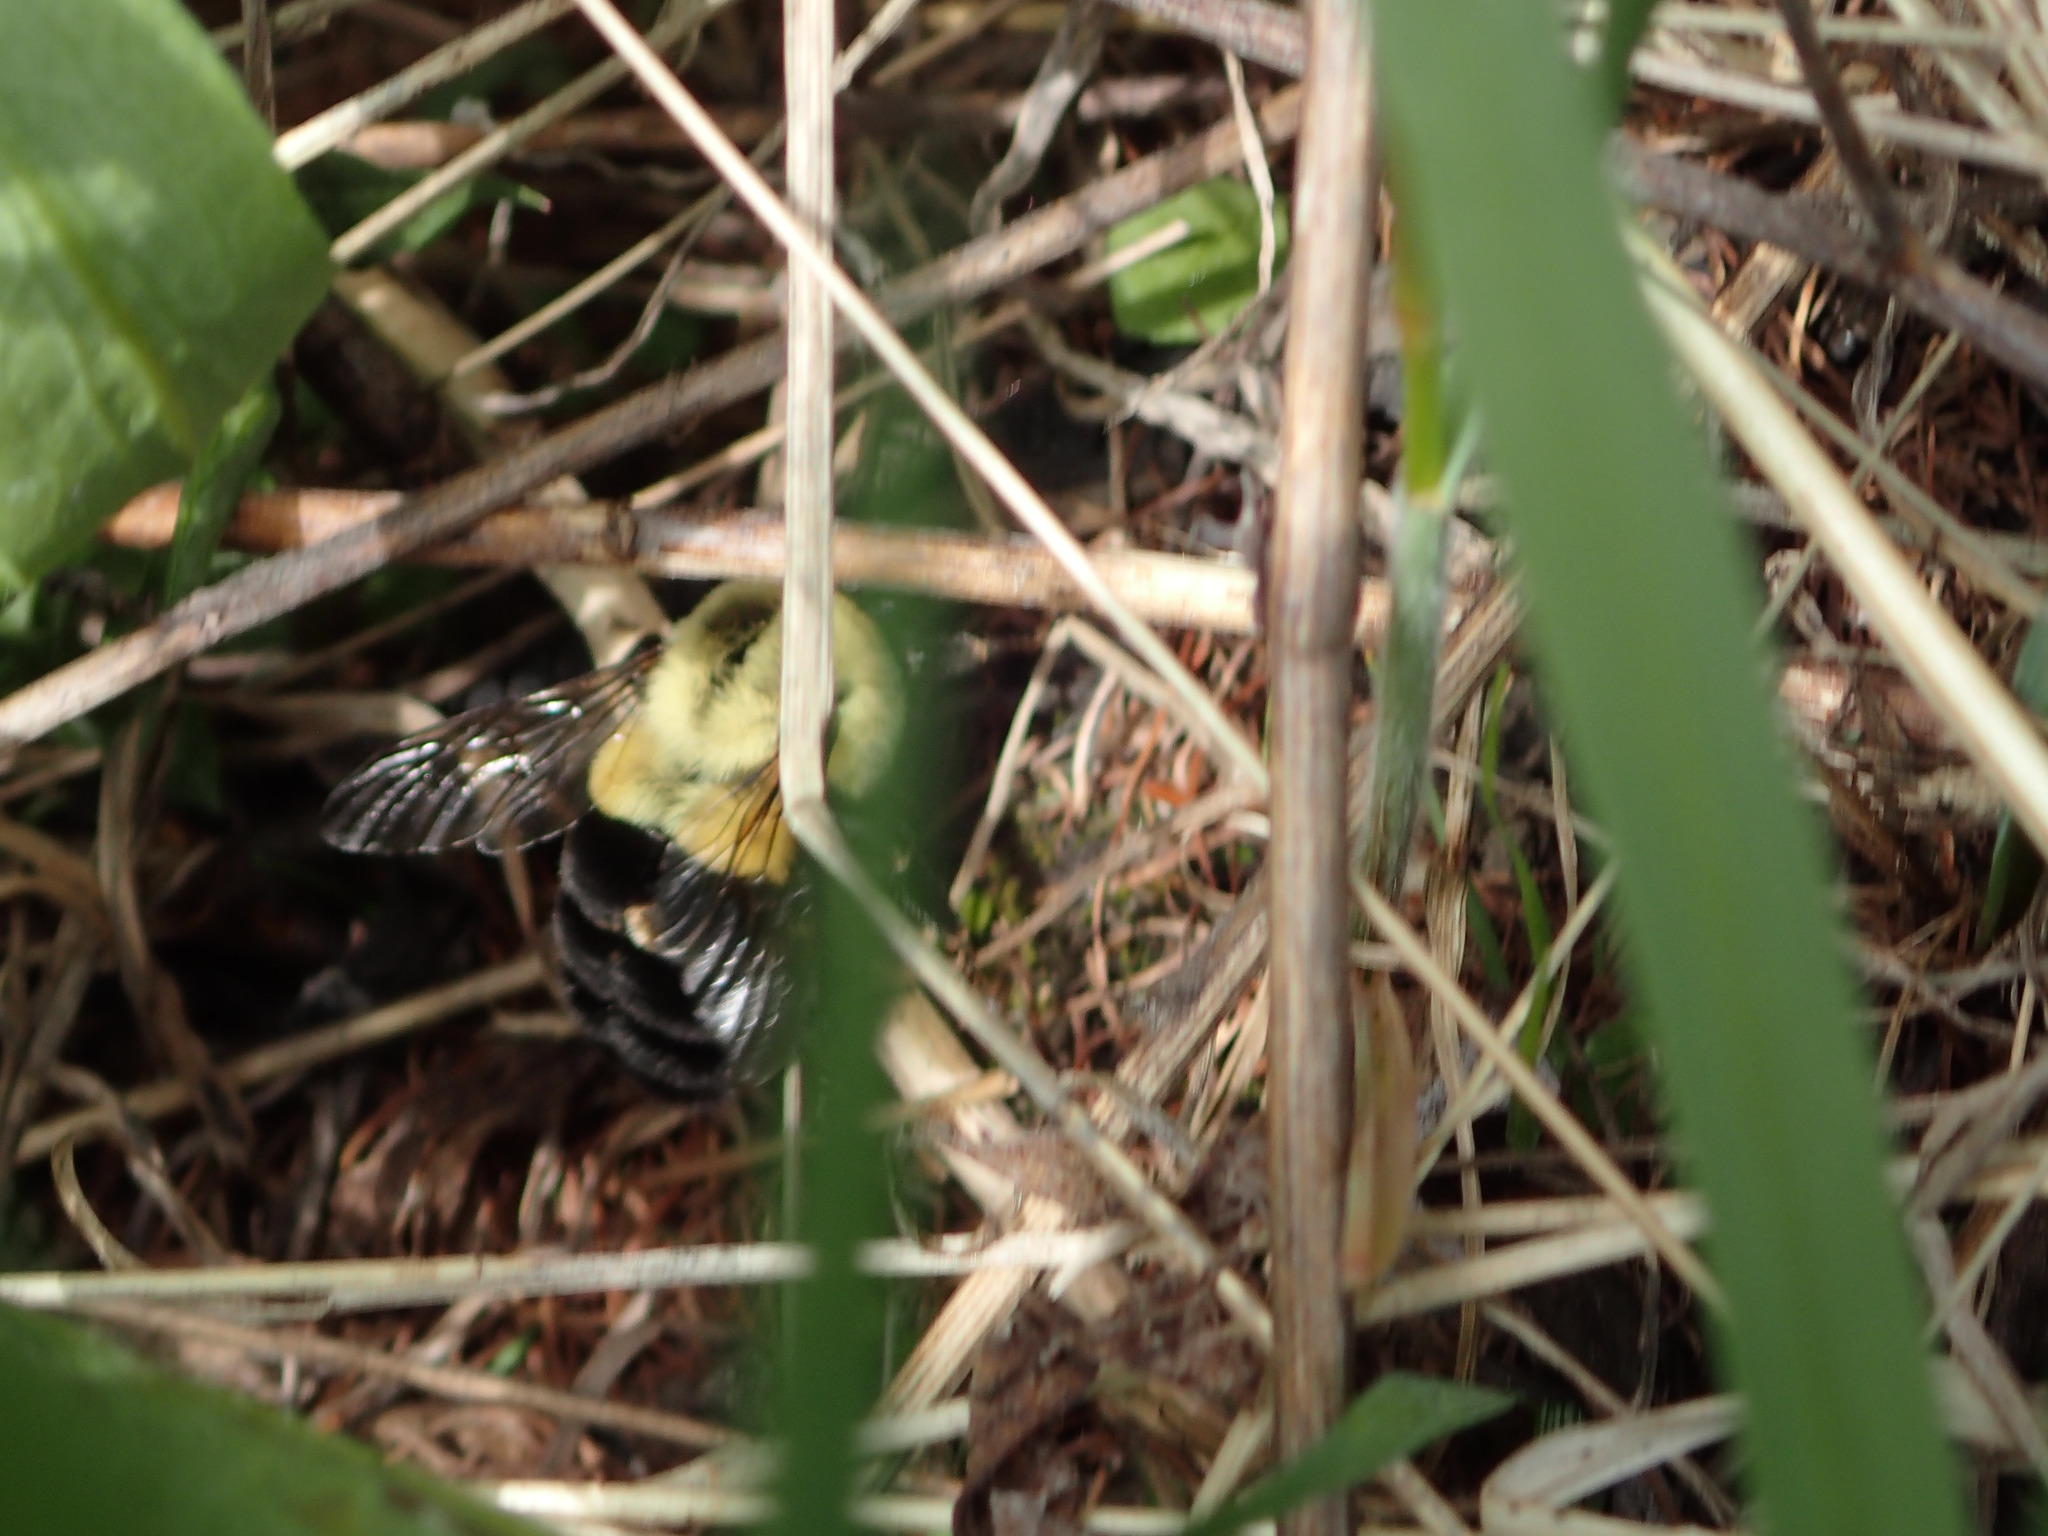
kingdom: Animalia
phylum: Arthropoda
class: Insecta
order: Hymenoptera
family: Apidae
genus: Bombus
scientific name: Bombus impatiens
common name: Common eastern bumble bee
